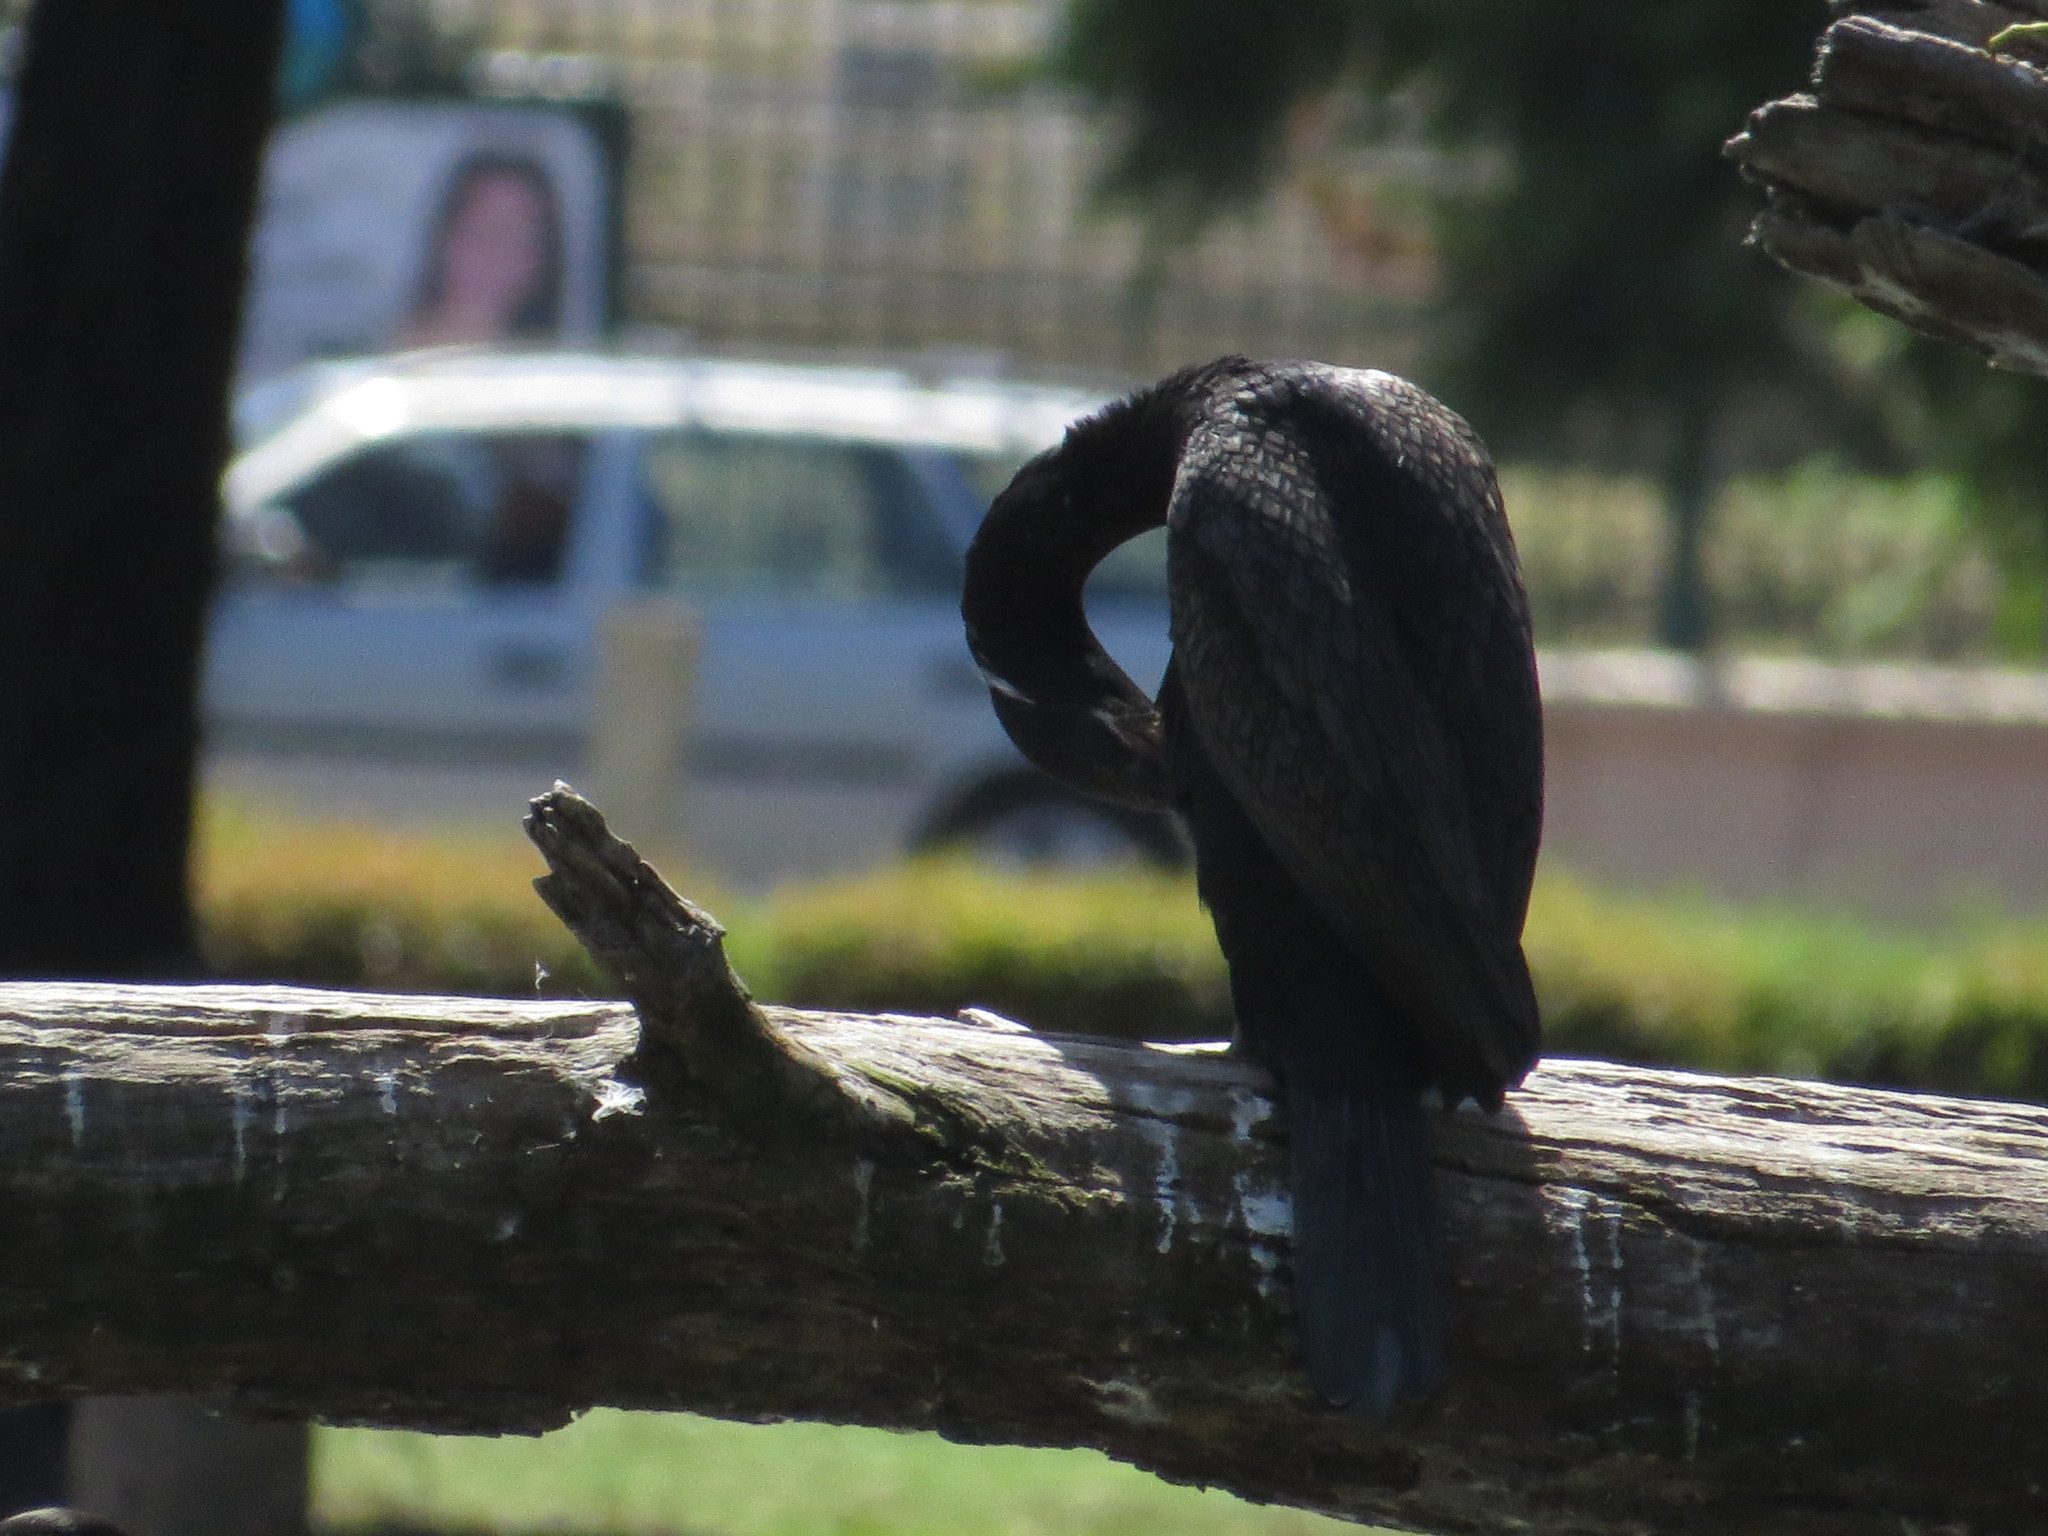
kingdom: Animalia
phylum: Chordata
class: Aves
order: Suliformes
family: Phalacrocoracidae
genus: Phalacrocorax
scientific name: Phalacrocorax brasilianus
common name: Neotropic cormorant
